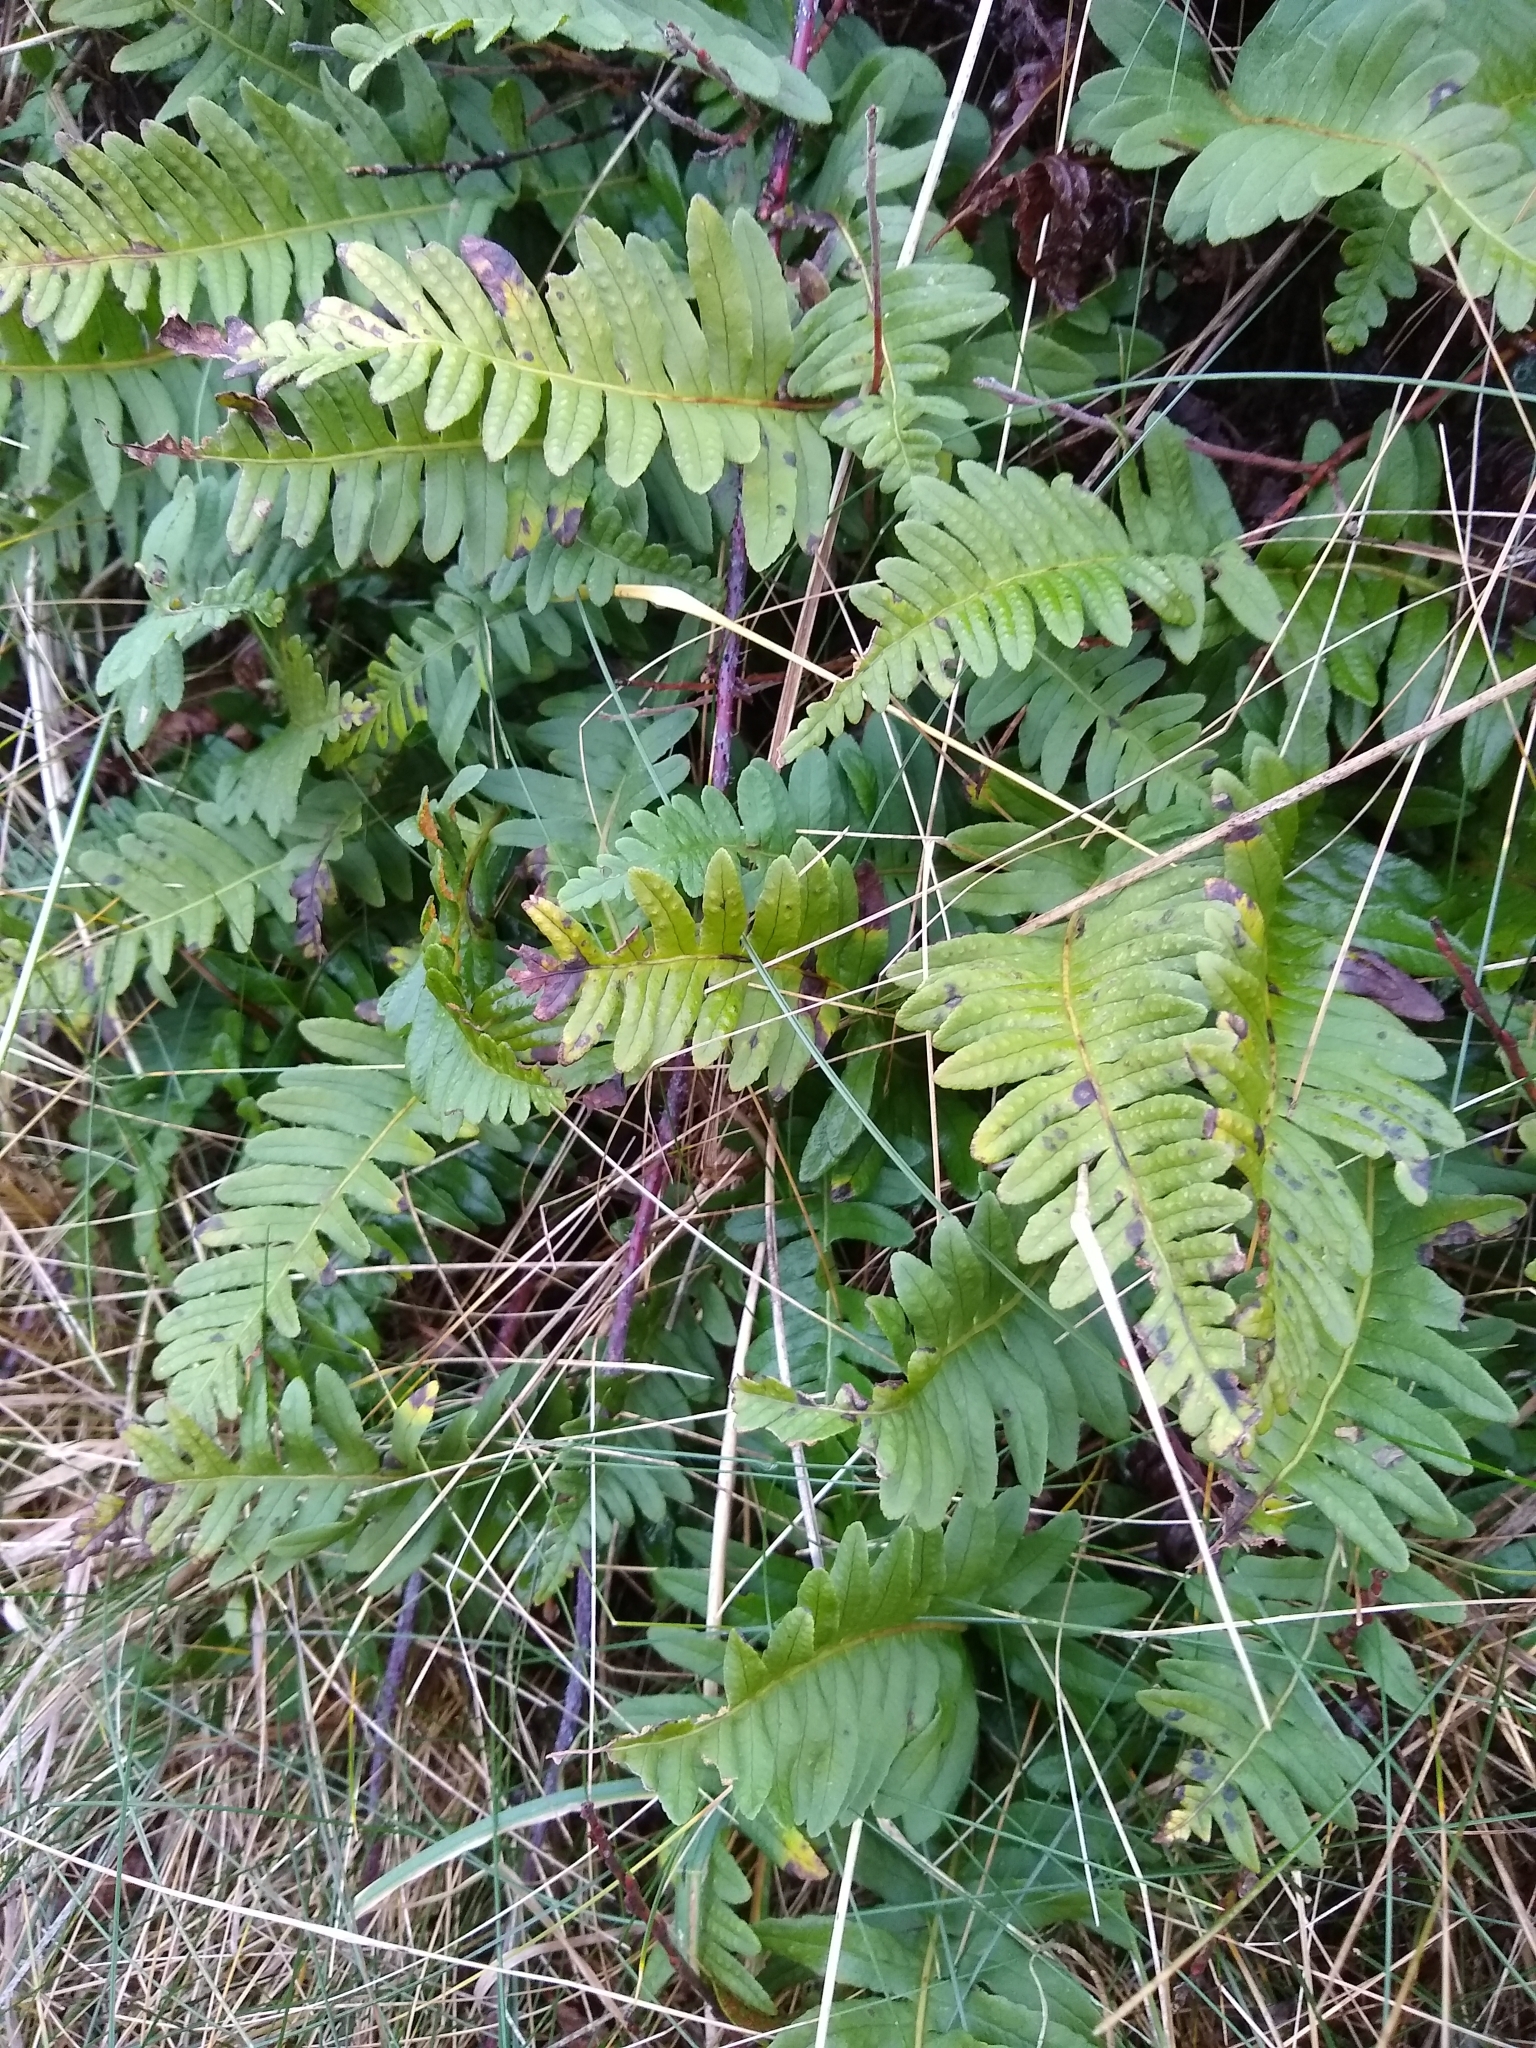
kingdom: Plantae
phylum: Tracheophyta
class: Polypodiopsida
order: Polypodiales
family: Polypodiaceae
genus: Polypodium
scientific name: Polypodium vulgare
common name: Common polypody
